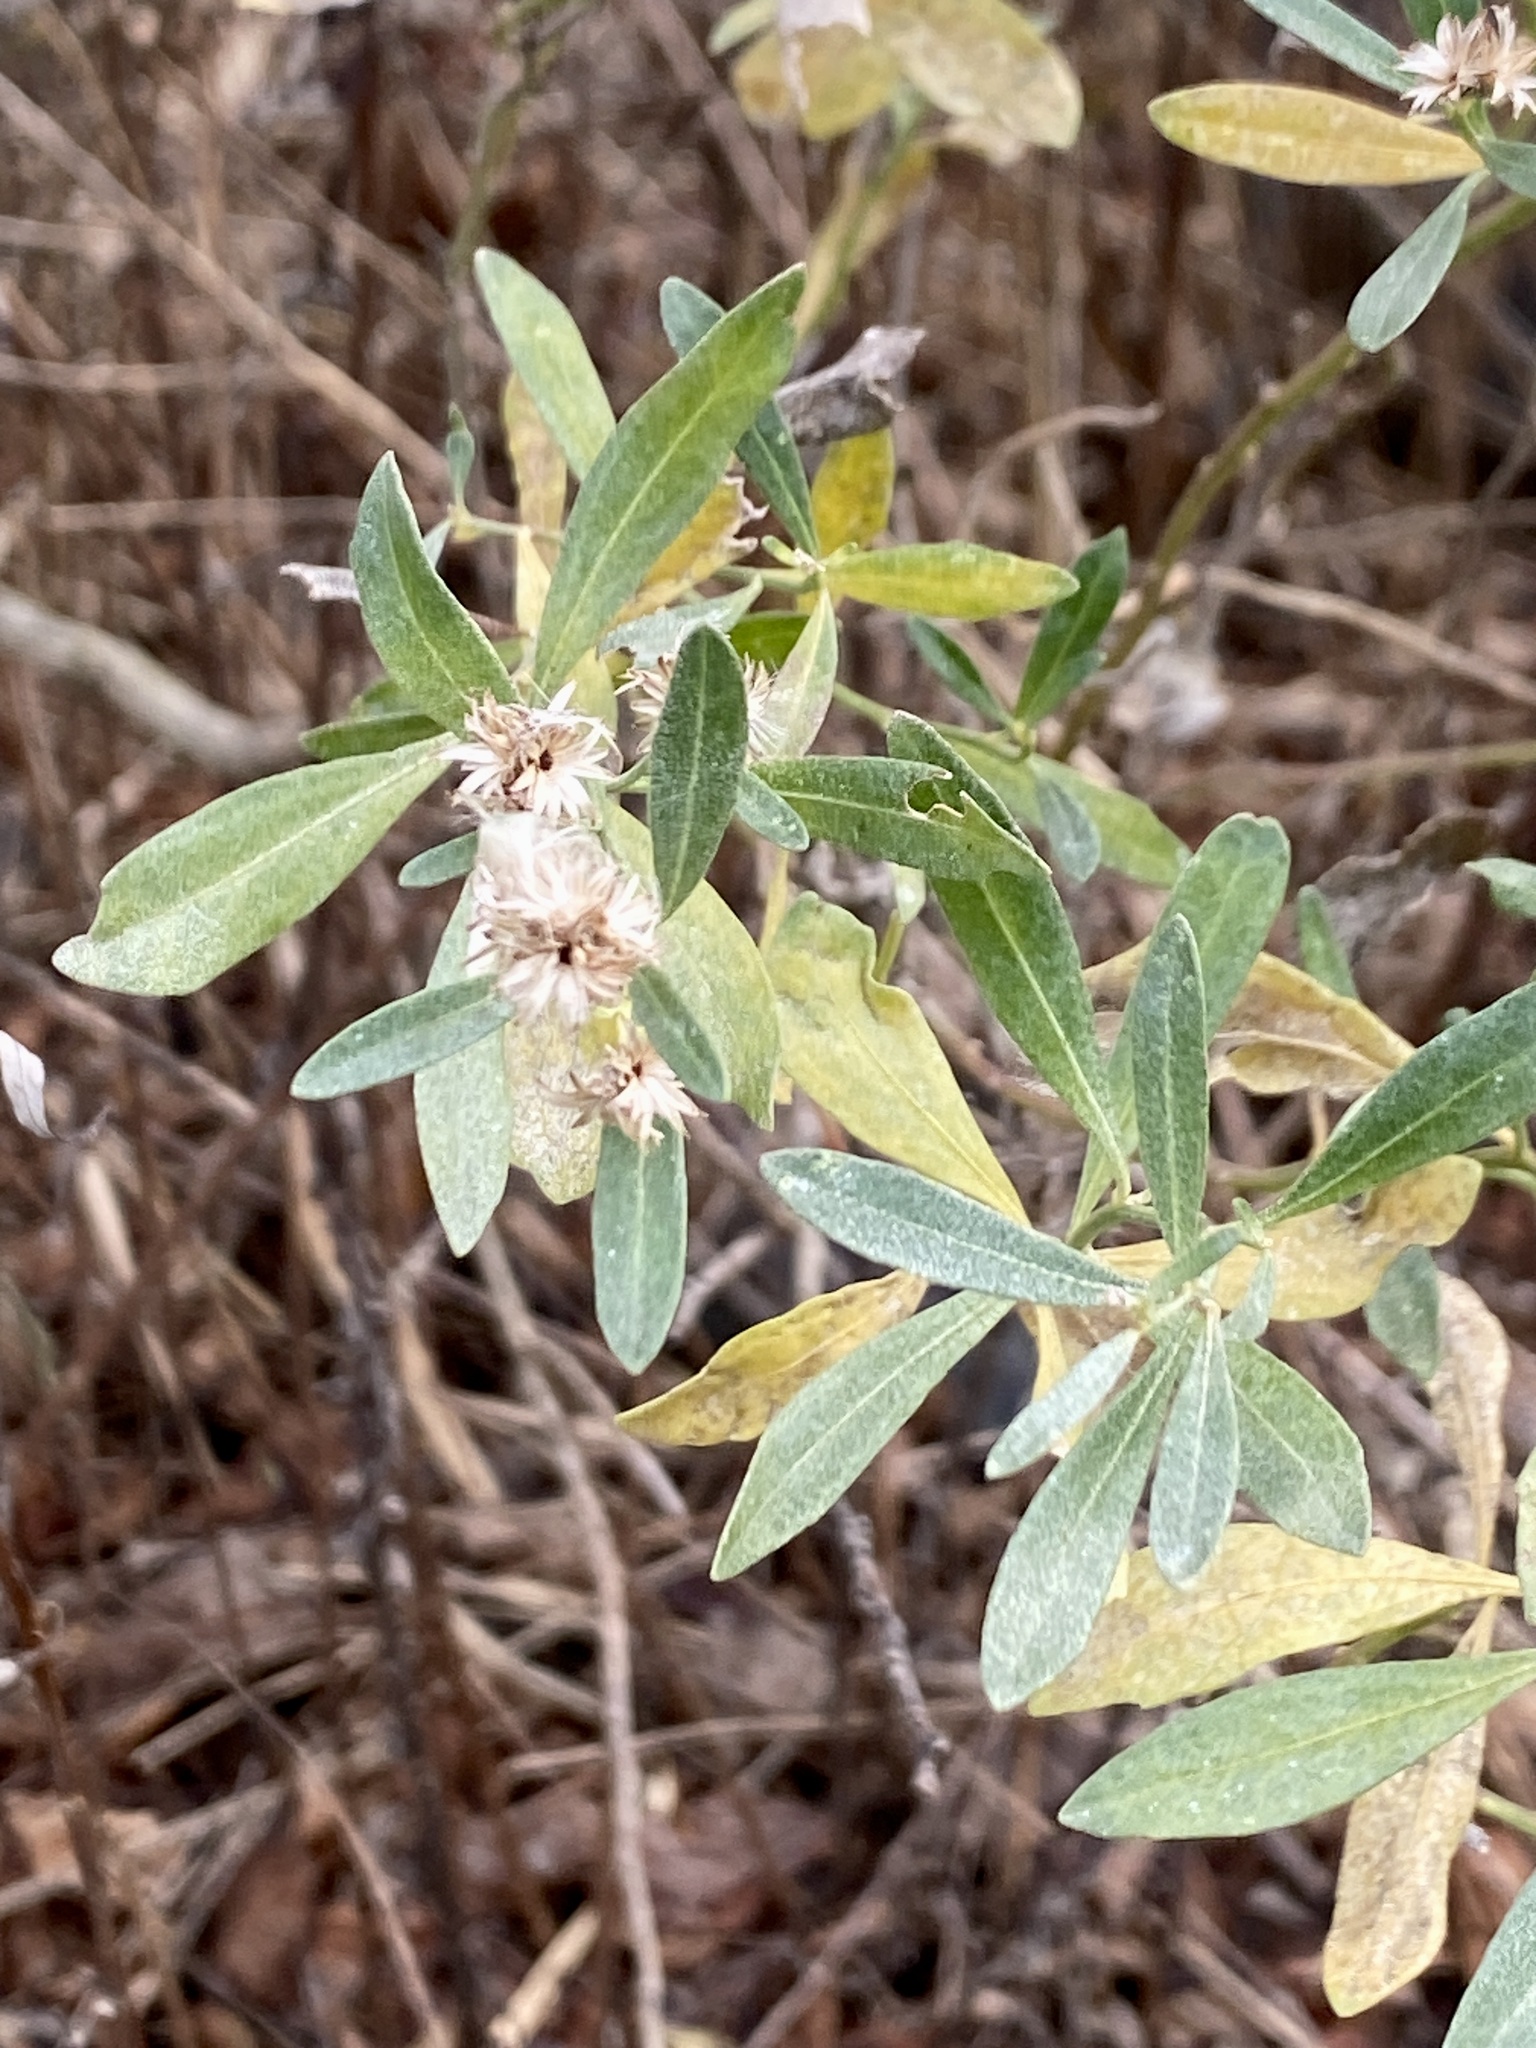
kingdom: Plantae
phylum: Tracheophyta
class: Magnoliopsida
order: Asterales
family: Asteraceae
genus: Baccharis
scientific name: Baccharis halimifolia
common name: Eastern baccharis
